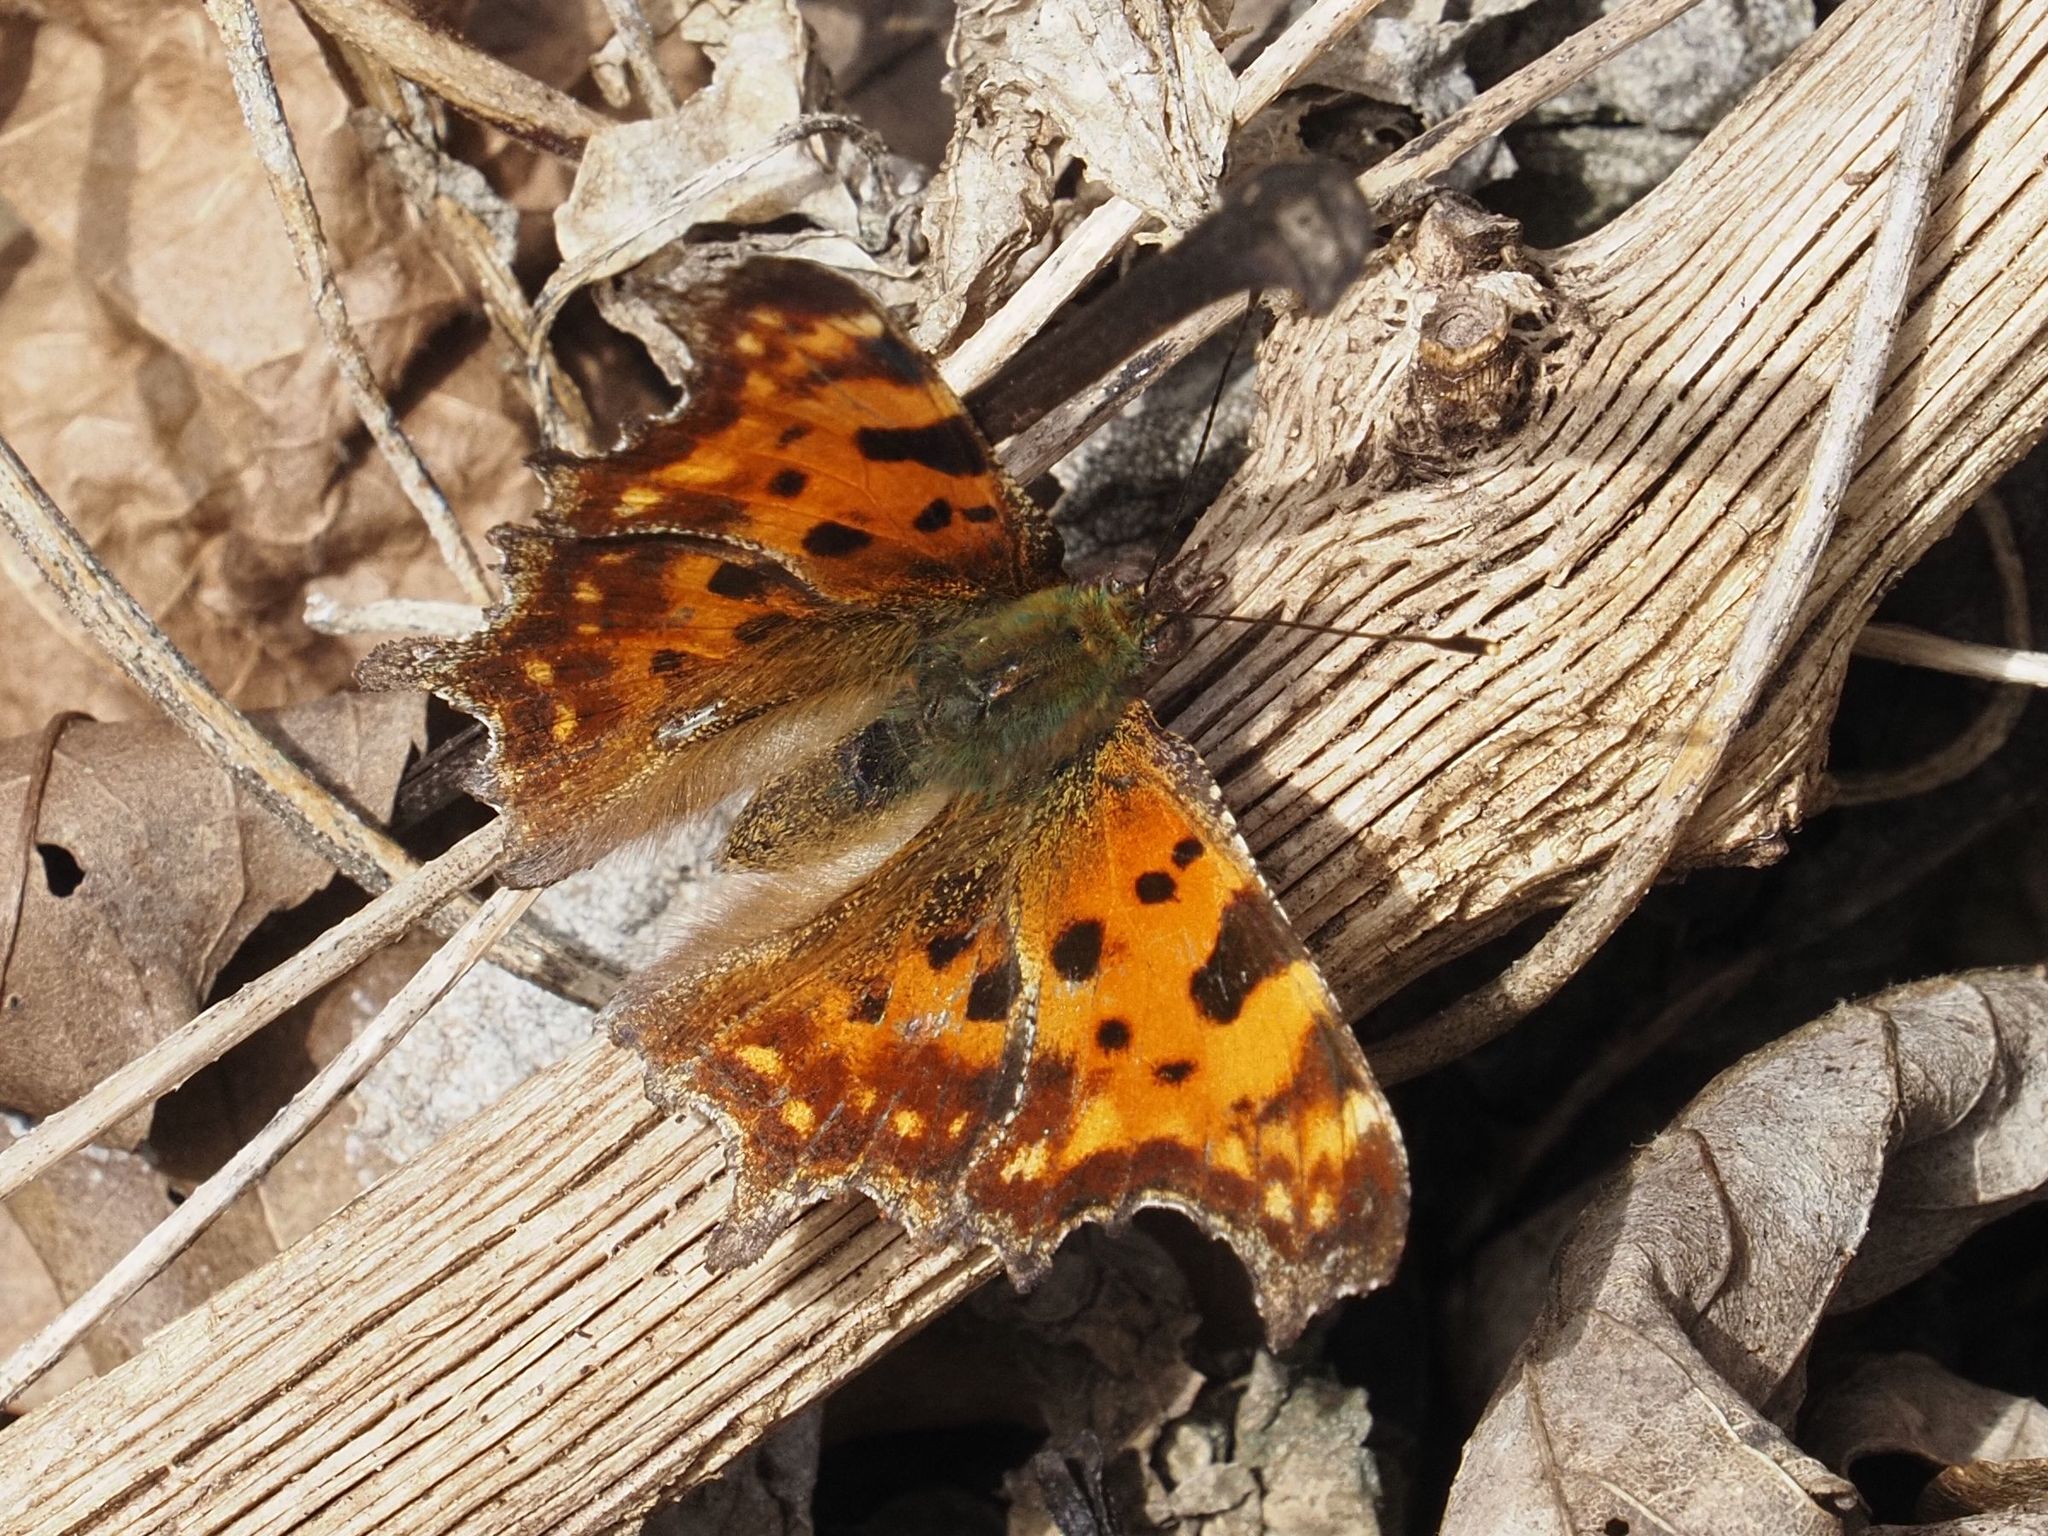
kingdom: Animalia
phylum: Arthropoda
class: Insecta
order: Lepidoptera
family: Nymphalidae
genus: Polygonia
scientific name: Polygonia c-album
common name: Comma
